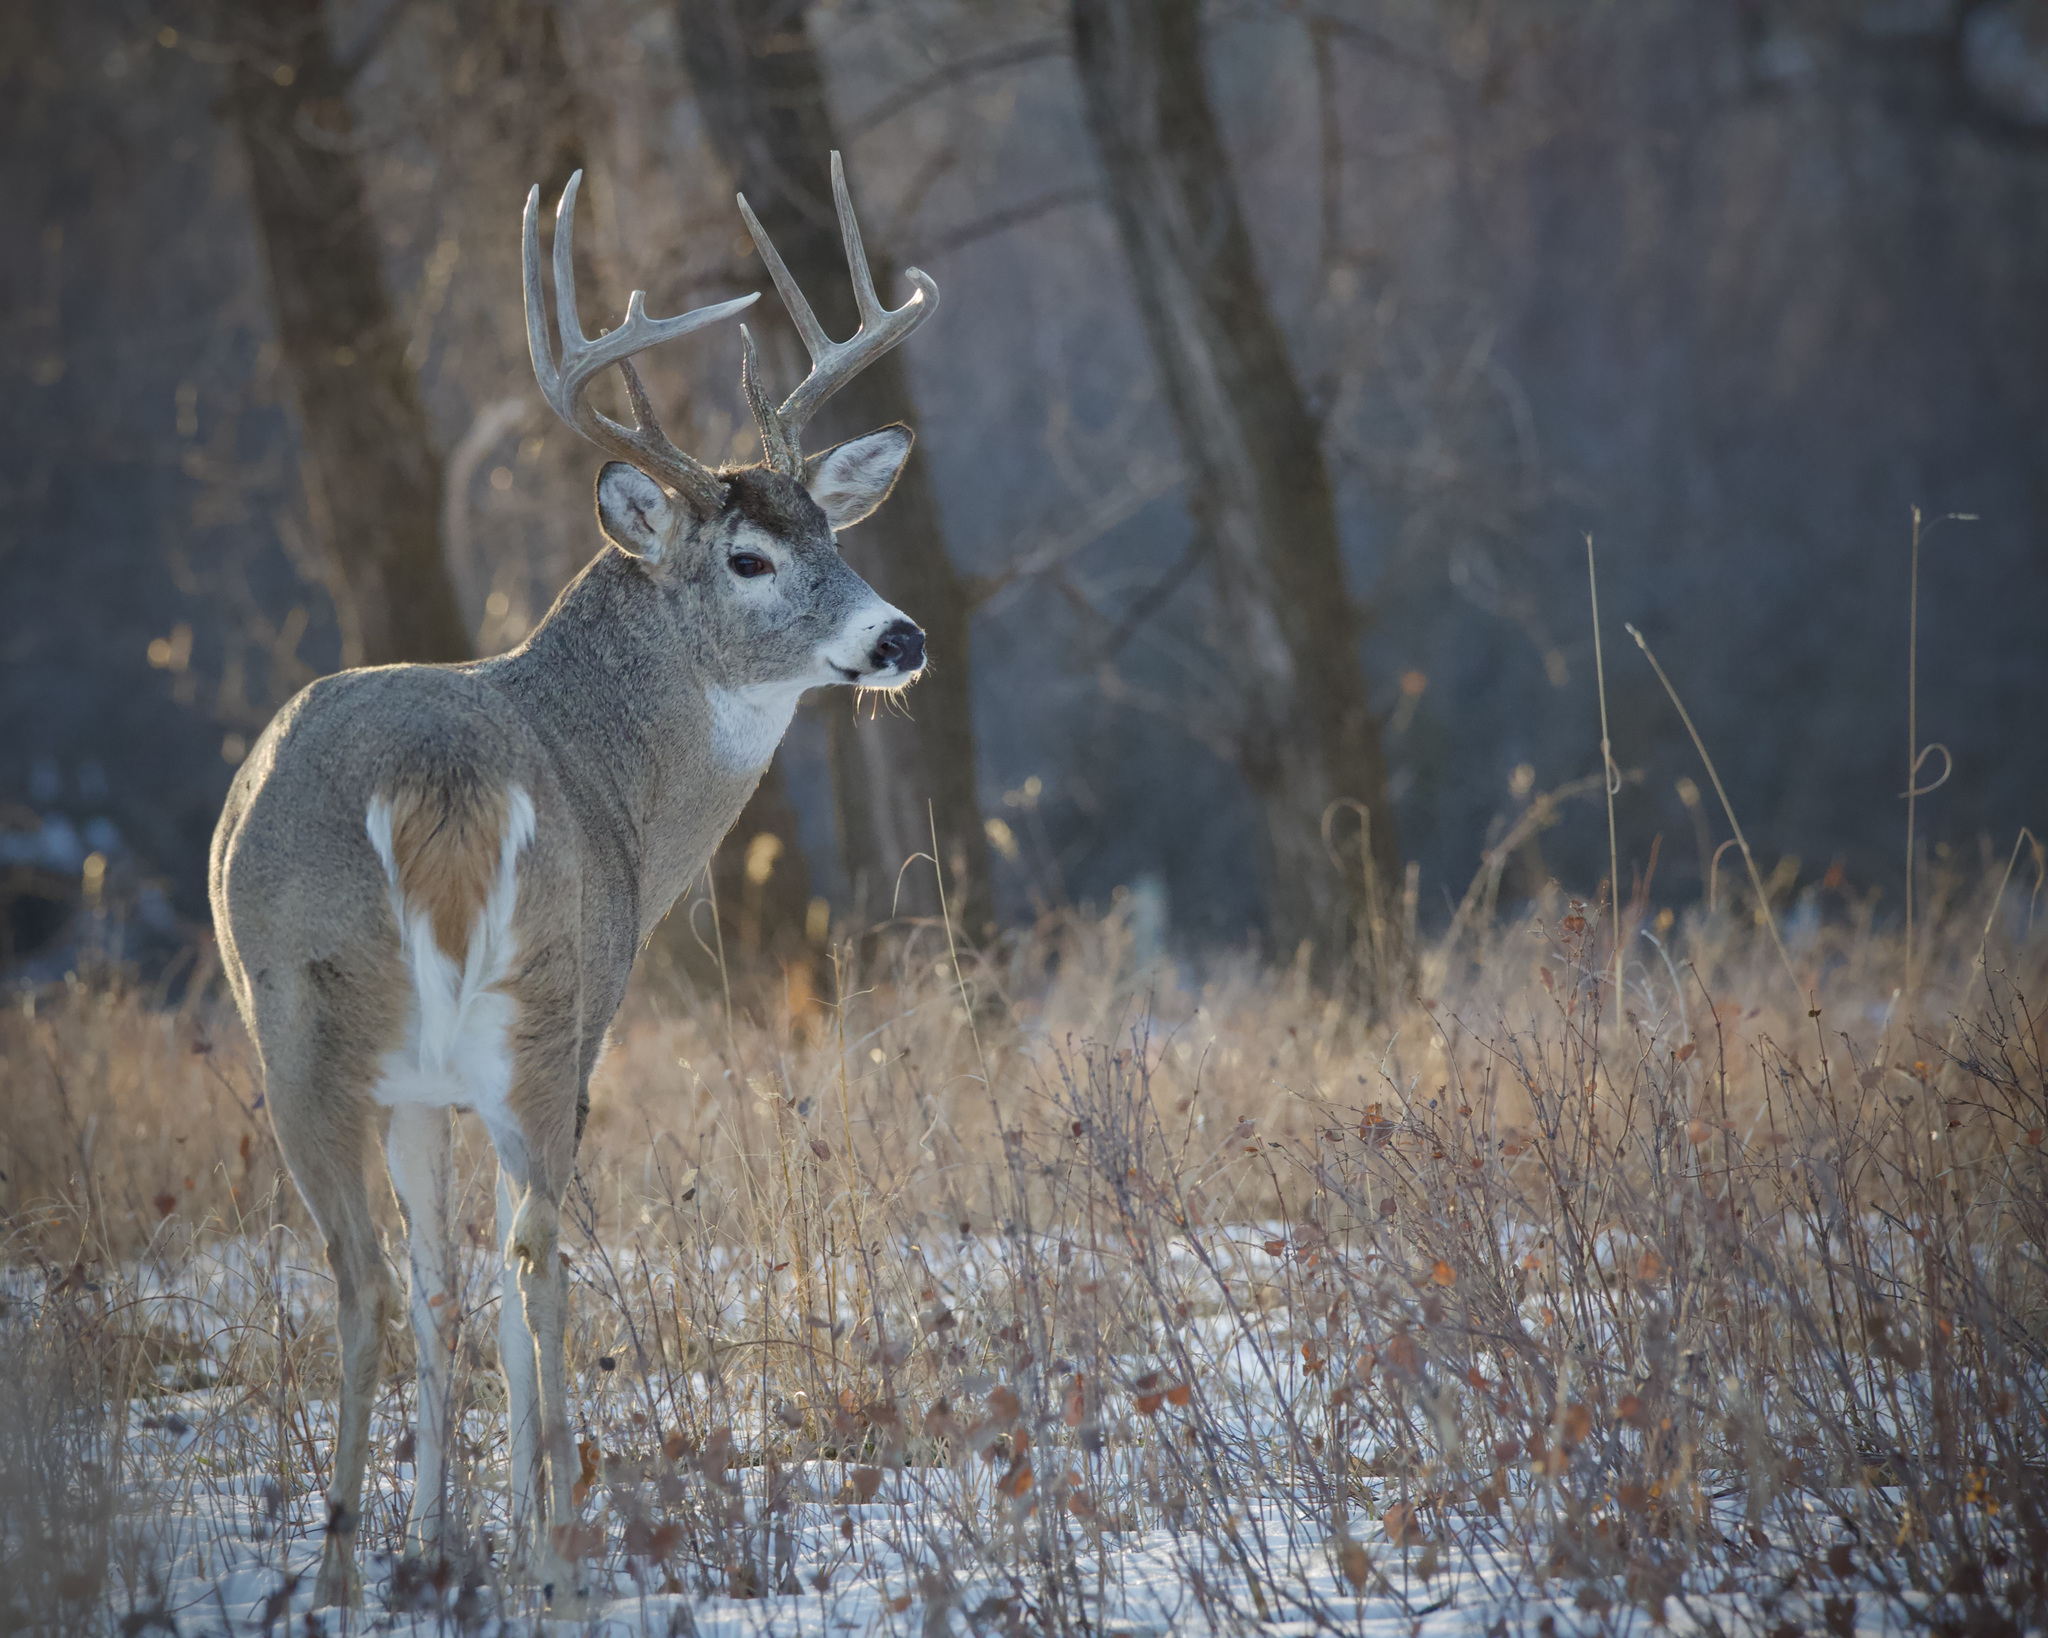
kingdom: Animalia
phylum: Chordata
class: Mammalia
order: Artiodactyla
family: Cervidae
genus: Odocoileus
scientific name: Odocoileus virginianus
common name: White-tailed deer
